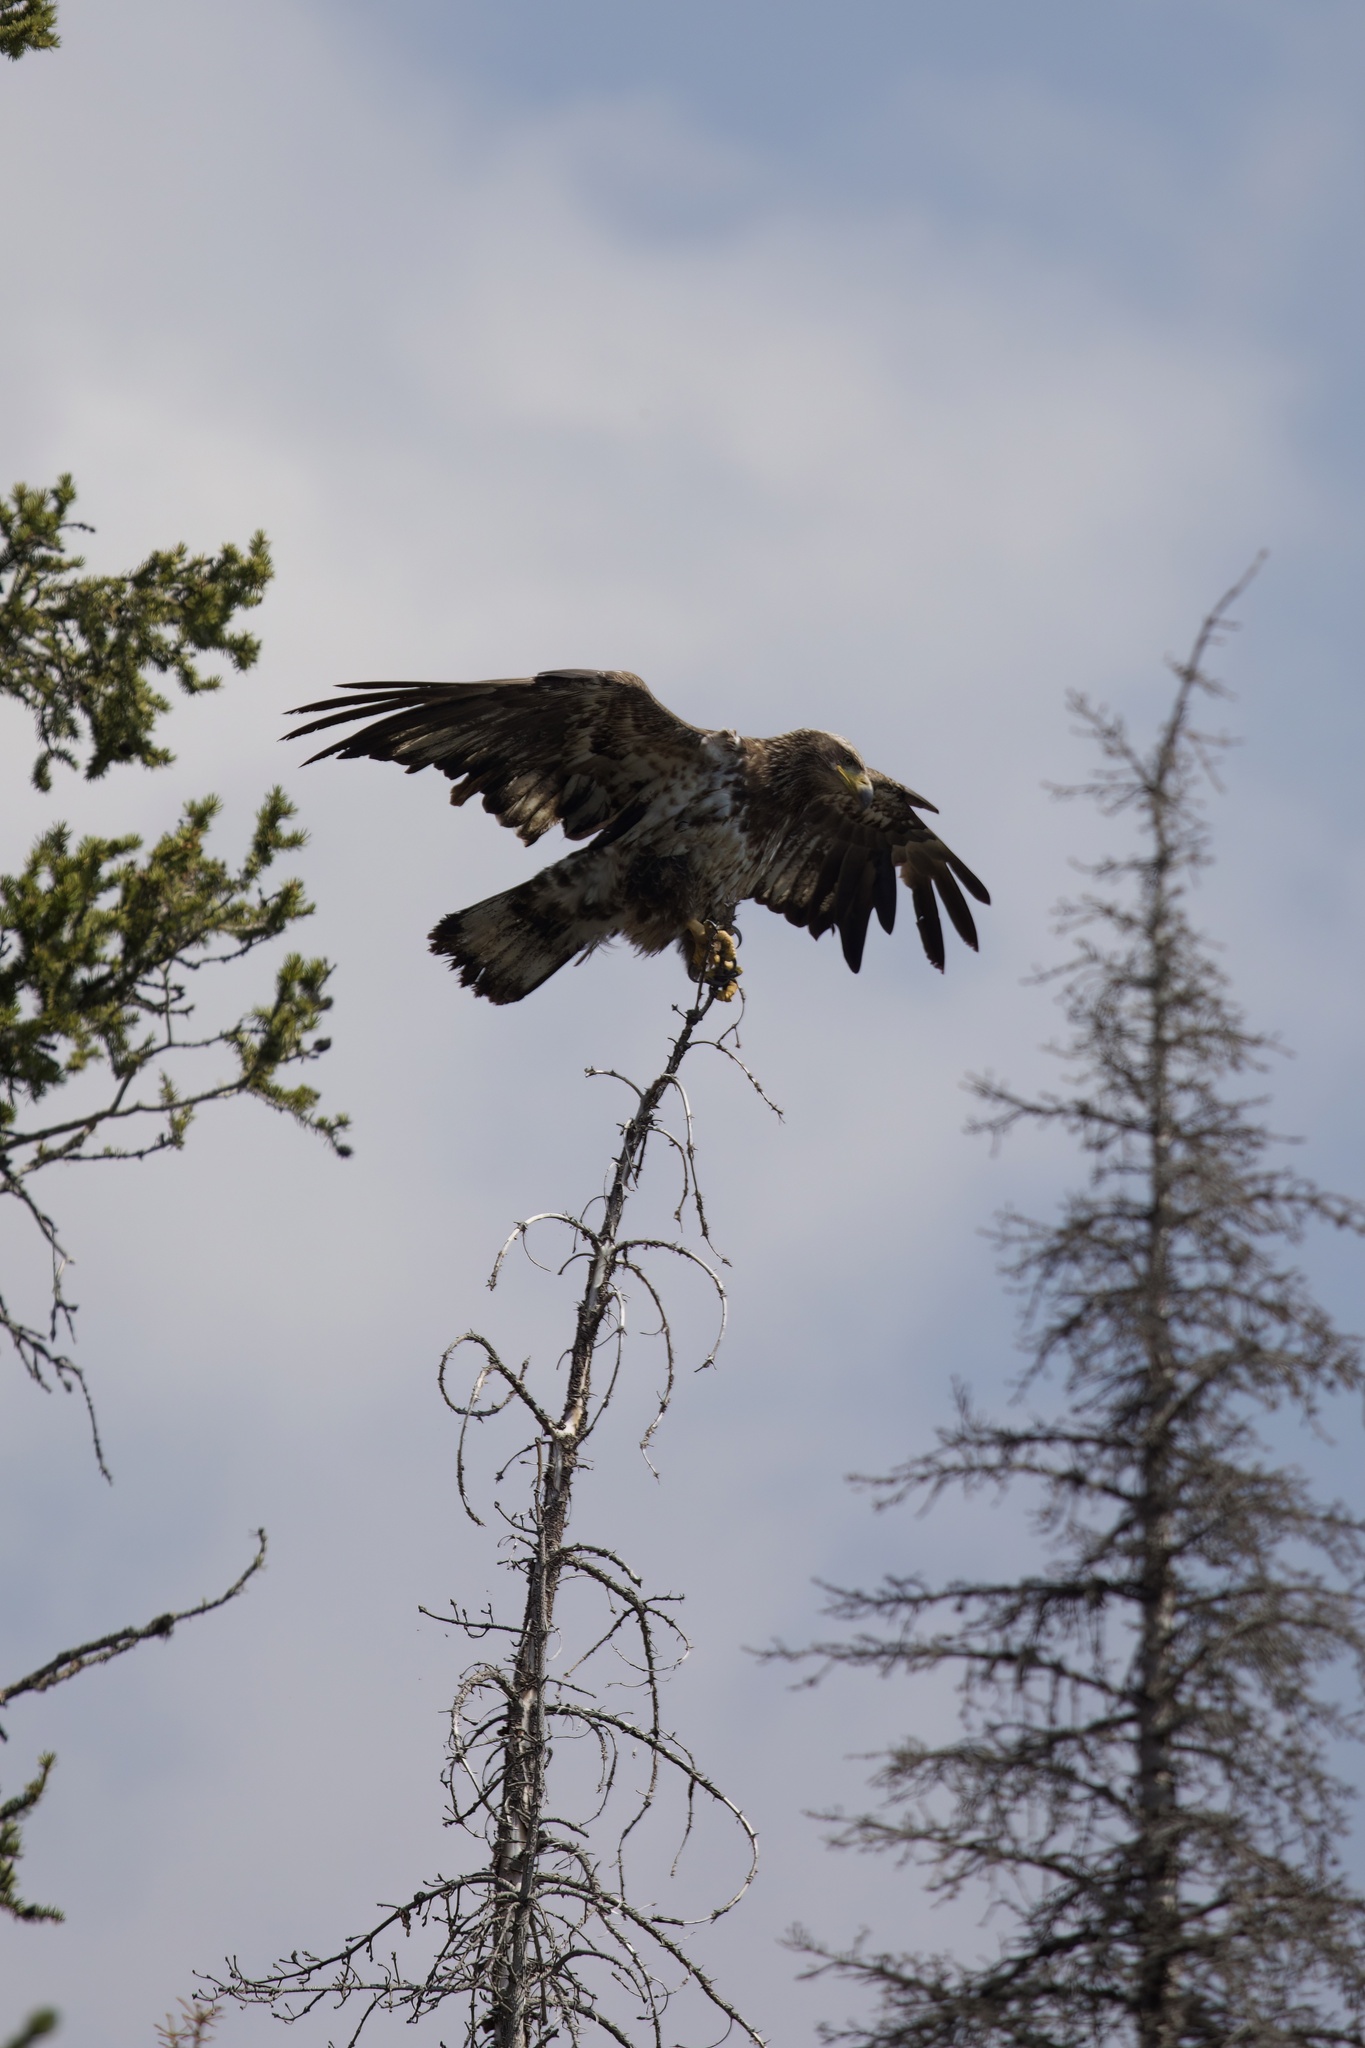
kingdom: Animalia
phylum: Chordata
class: Aves
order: Accipitriformes
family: Accipitridae
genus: Haliaeetus
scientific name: Haliaeetus leucocephalus
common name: Bald eagle
